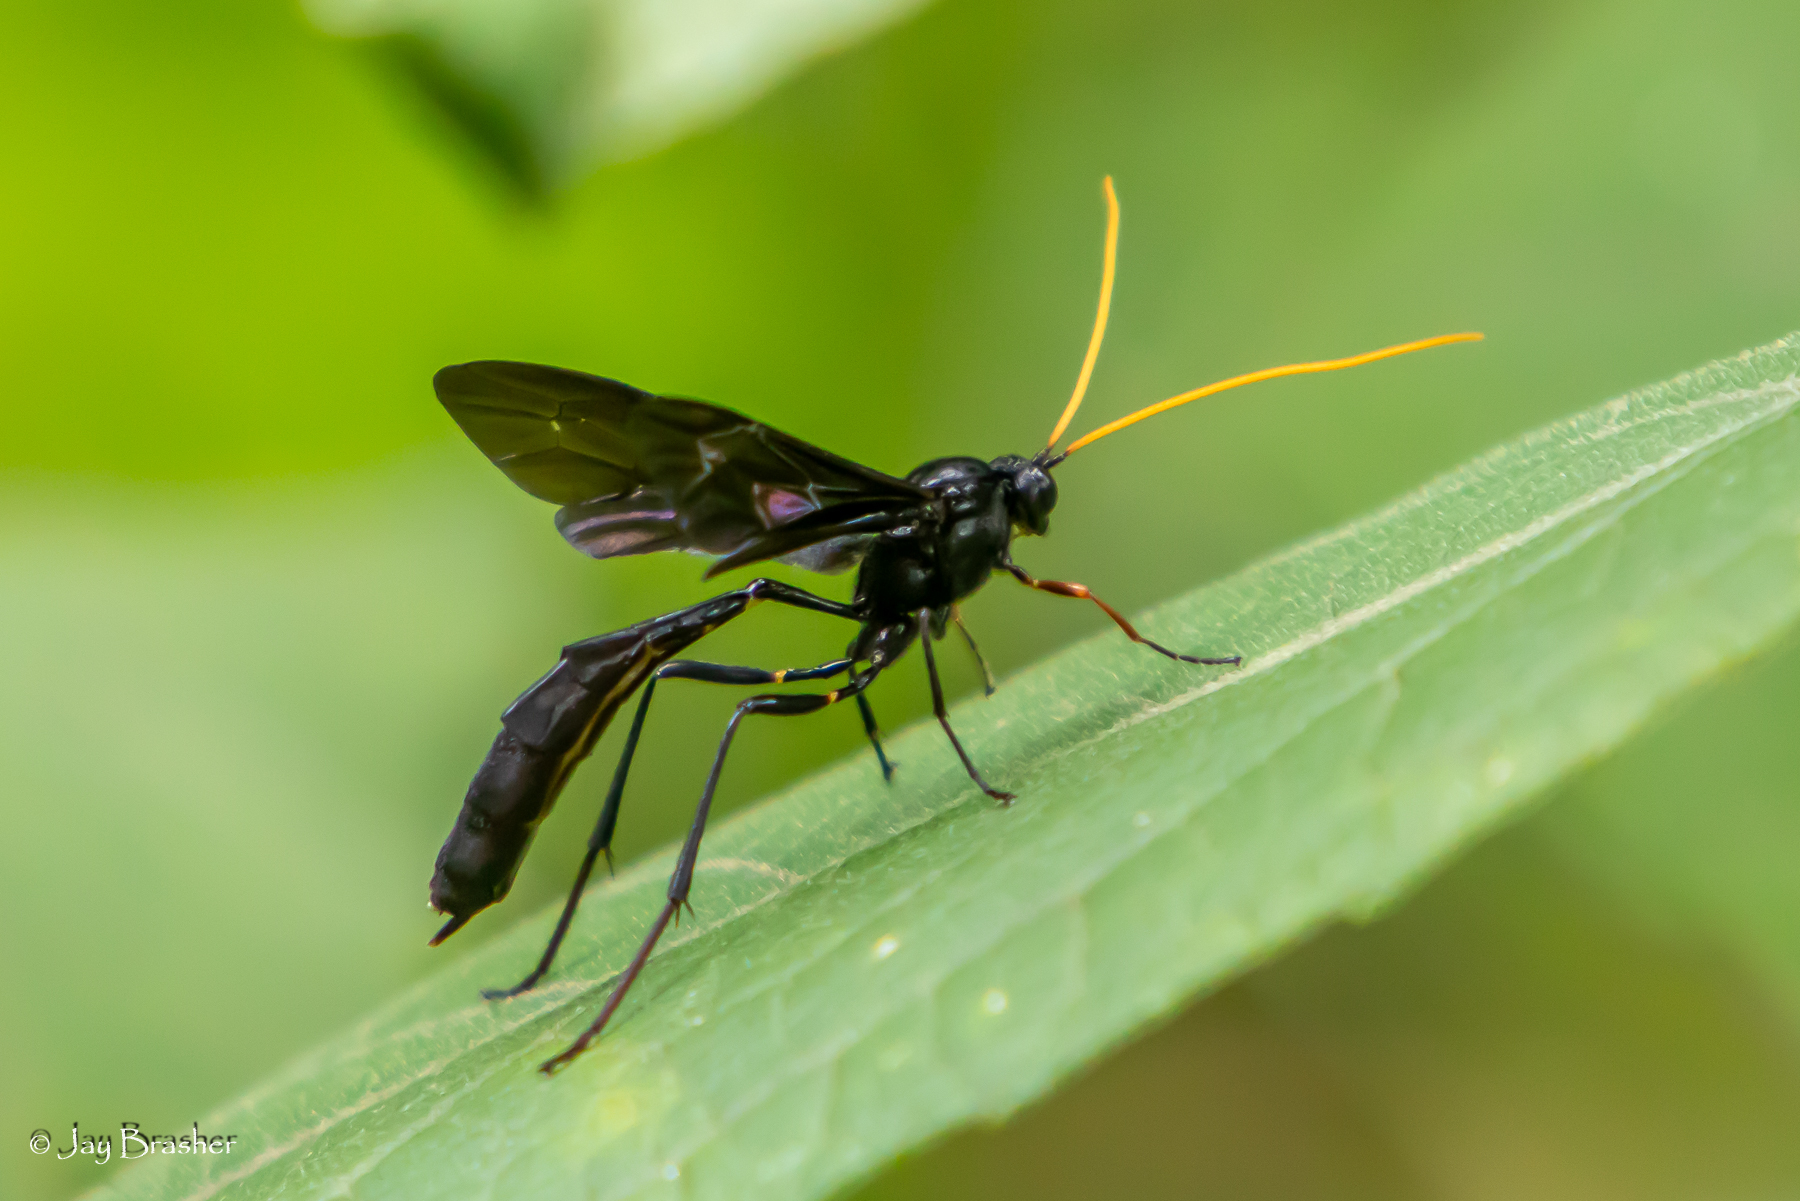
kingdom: Animalia
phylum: Arthropoda
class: Insecta
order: Hymenoptera
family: Ichneumonidae
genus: Heteropelma
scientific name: Heteropelma datanae
